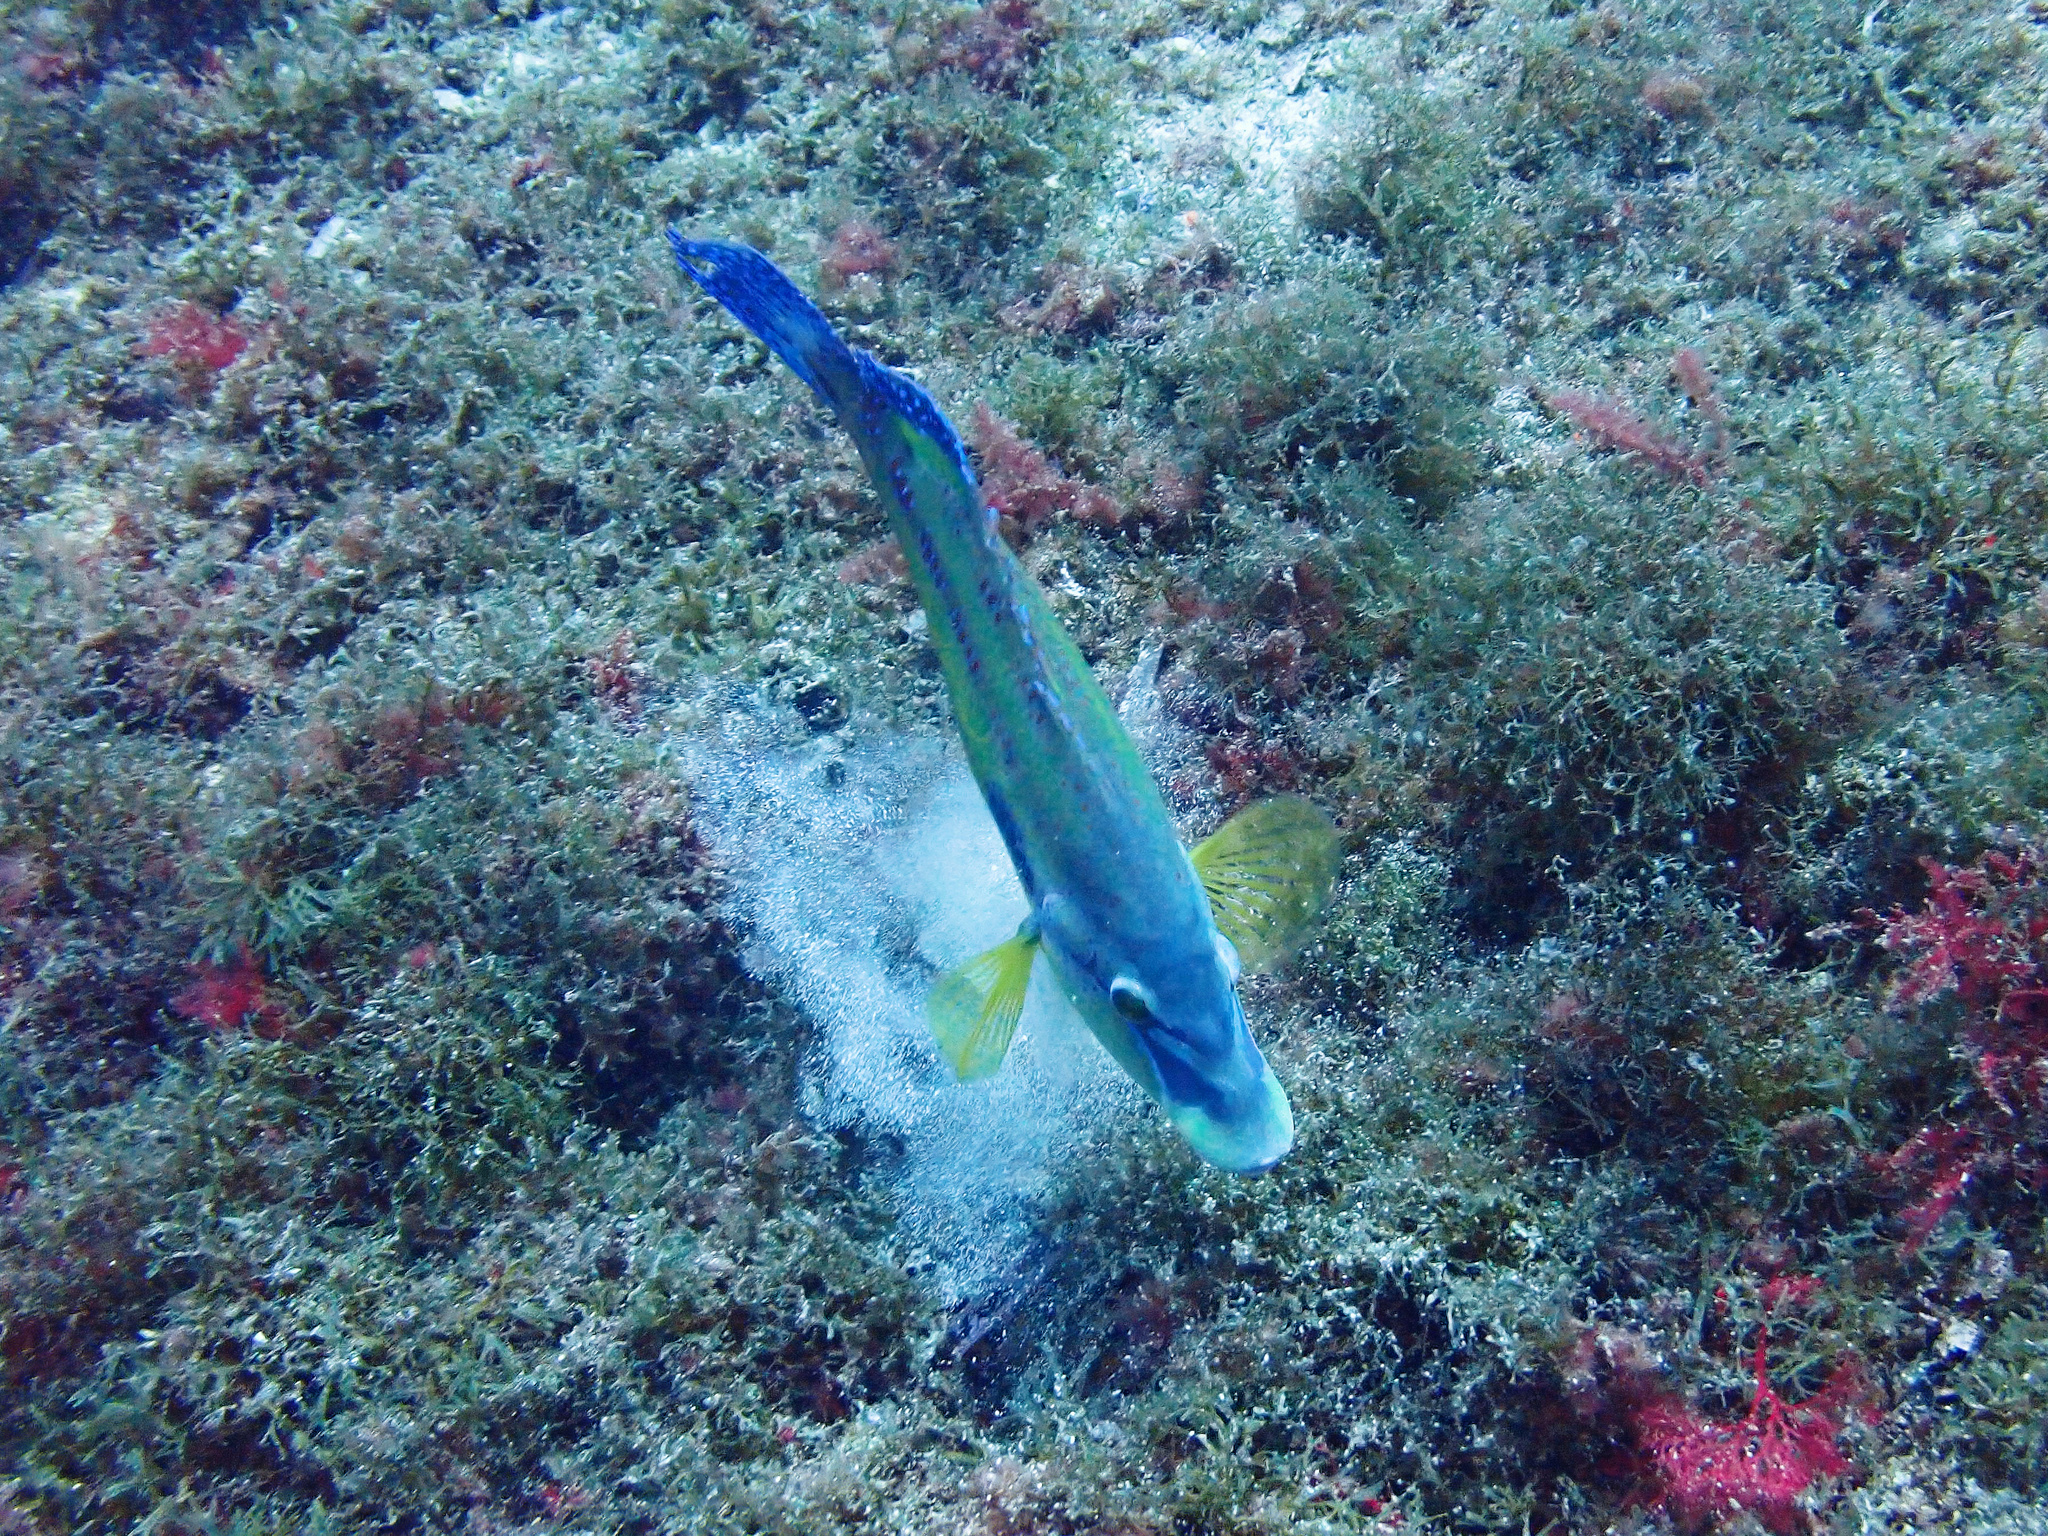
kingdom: Animalia
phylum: Chordata
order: Perciformes
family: Labridae
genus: Symphodus
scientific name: Symphodus tinca
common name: Peacock wrasse
